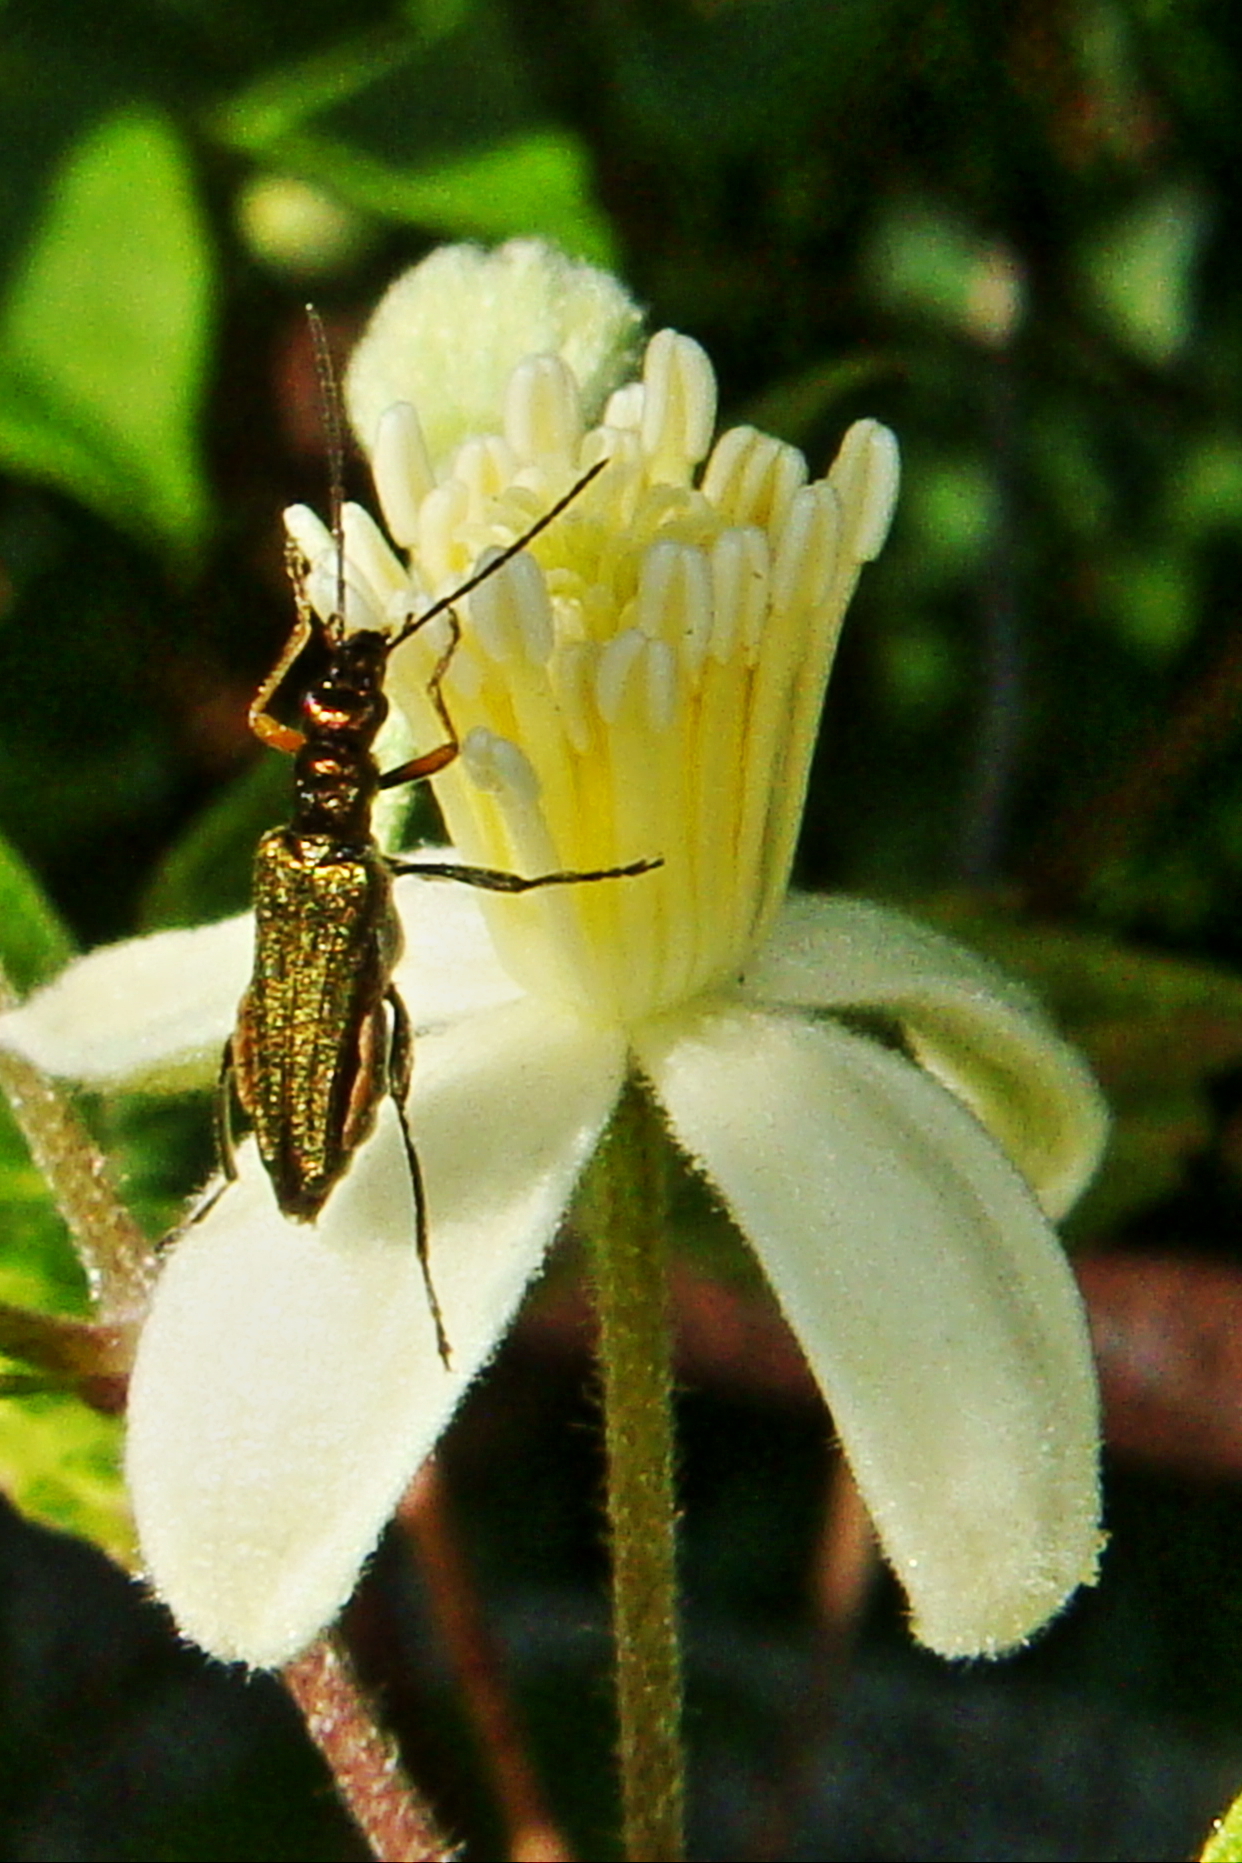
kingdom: Animalia
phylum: Arthropoda
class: Insecta
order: Coleoptera
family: Oedemeridae
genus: Oedemera
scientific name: Oedemera flavipes
